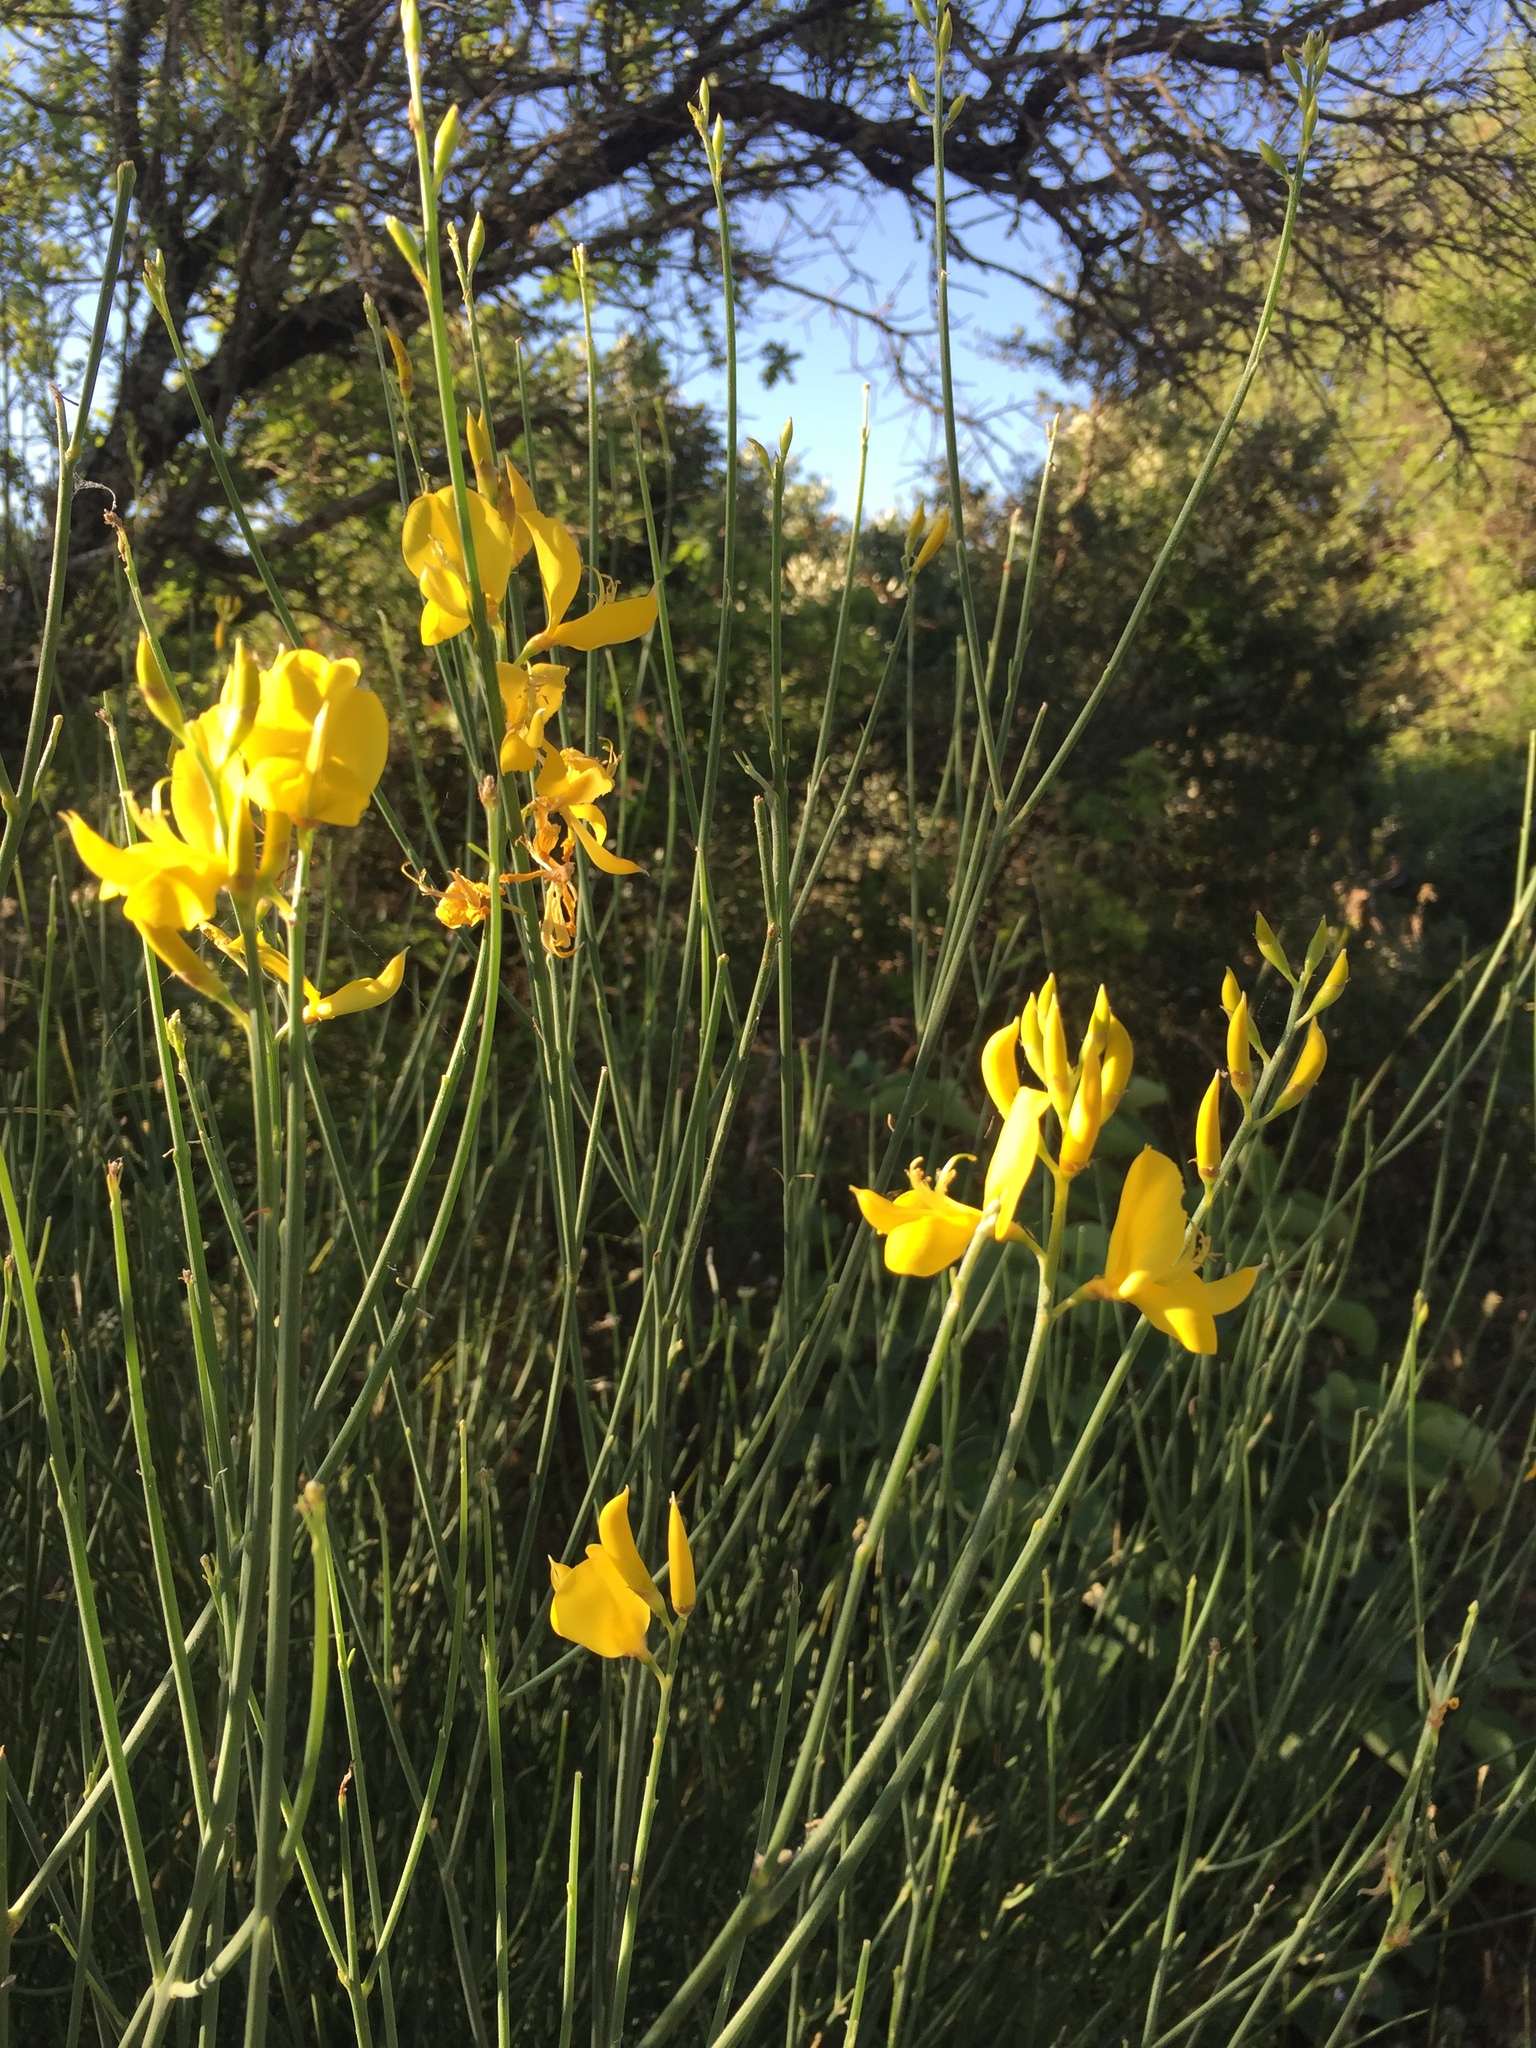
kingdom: Plantae
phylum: Tracheophyta
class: Magnoliopsida
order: Fabales
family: Fabaceae
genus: Spartium
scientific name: Spartium junceum
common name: Spanish broom
